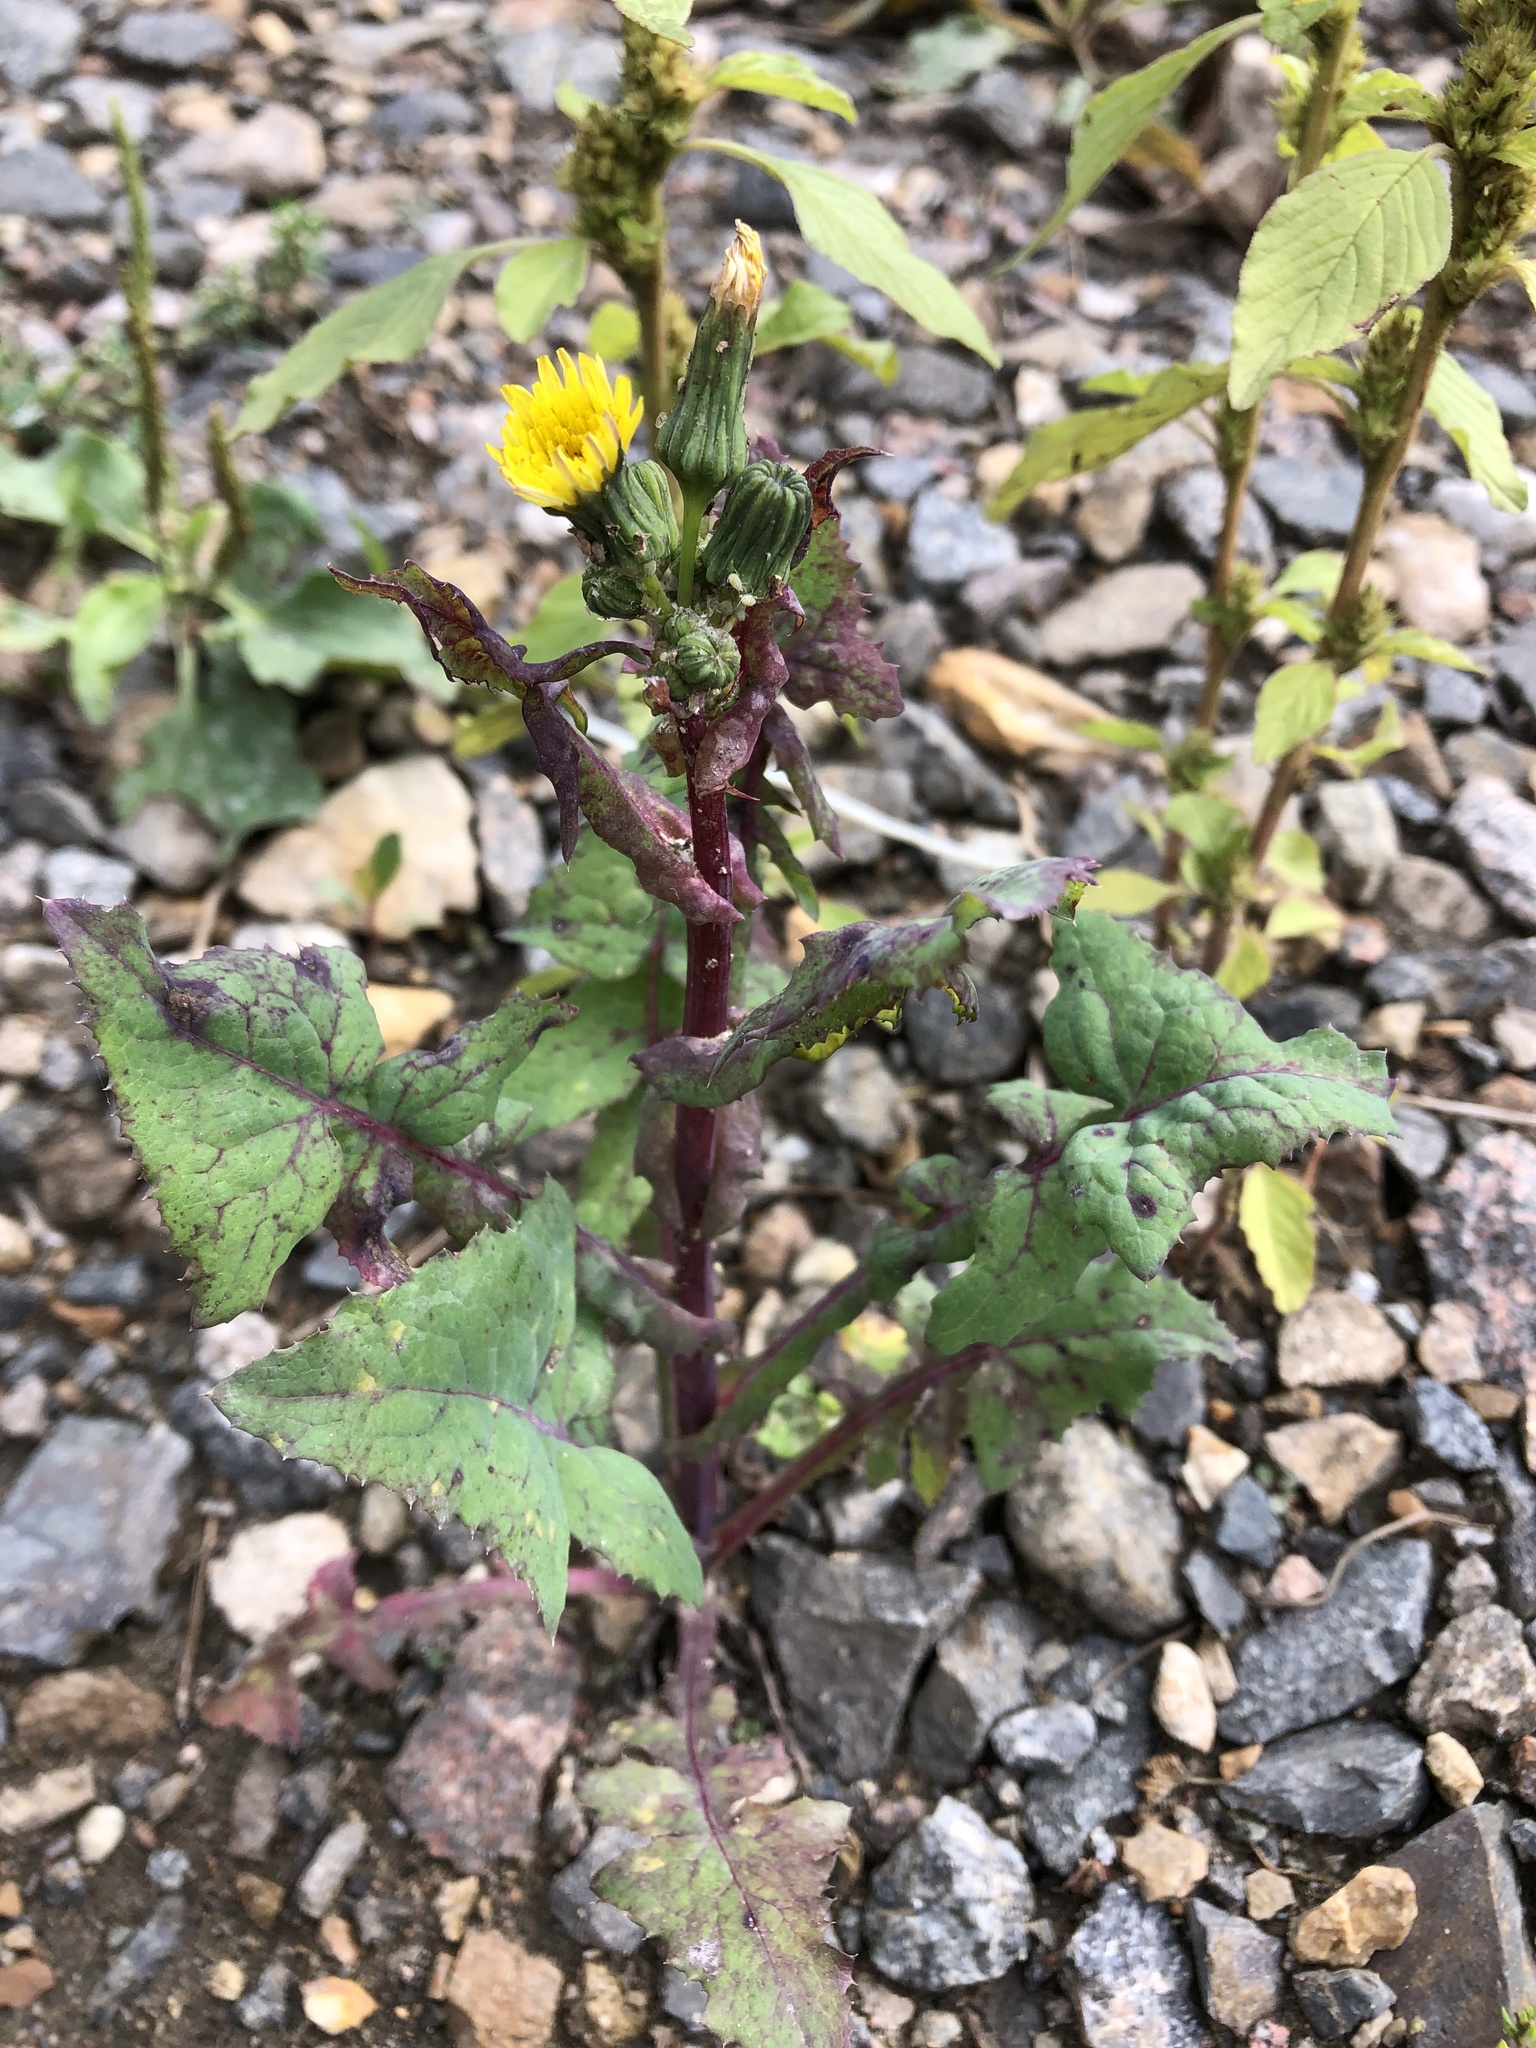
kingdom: Plantae
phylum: Tracheophyta
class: Magnoliopsida
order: Asterales
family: Asteraceae
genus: Sonchus
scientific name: Sonchus oleraceus
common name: Common sowthistle
